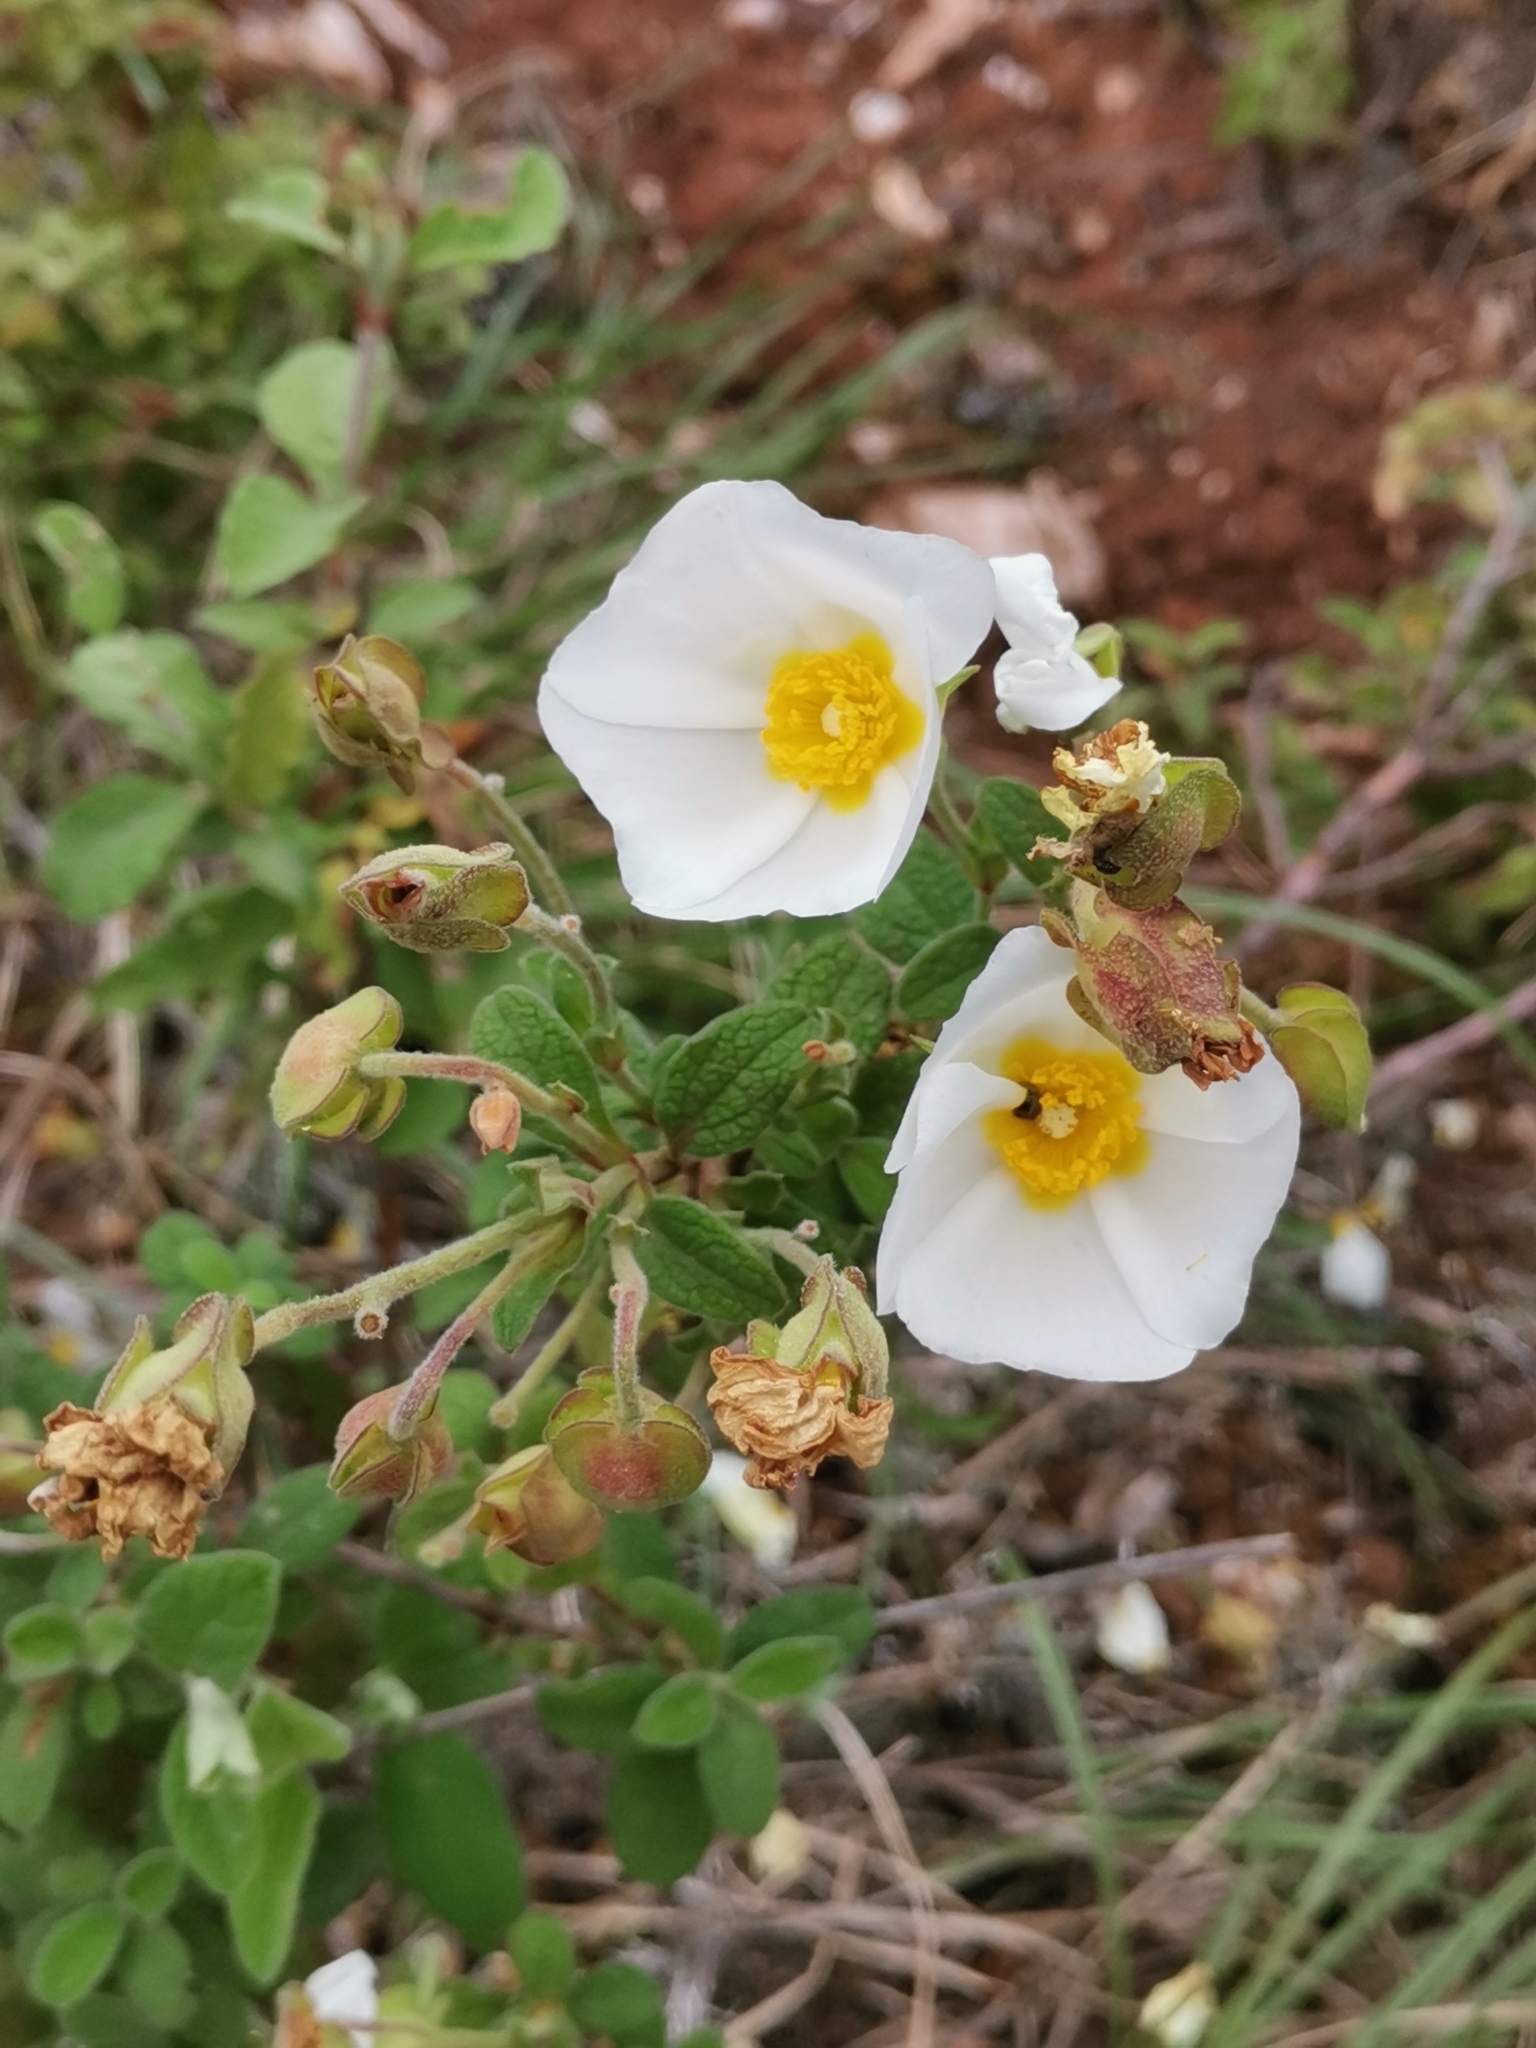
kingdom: Plantae
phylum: Tracheophyta
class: Magnoliopsida
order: Malvales
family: Cistaceae
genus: Cistus
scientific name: Cistus salviifolius
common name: Salvia cistus
